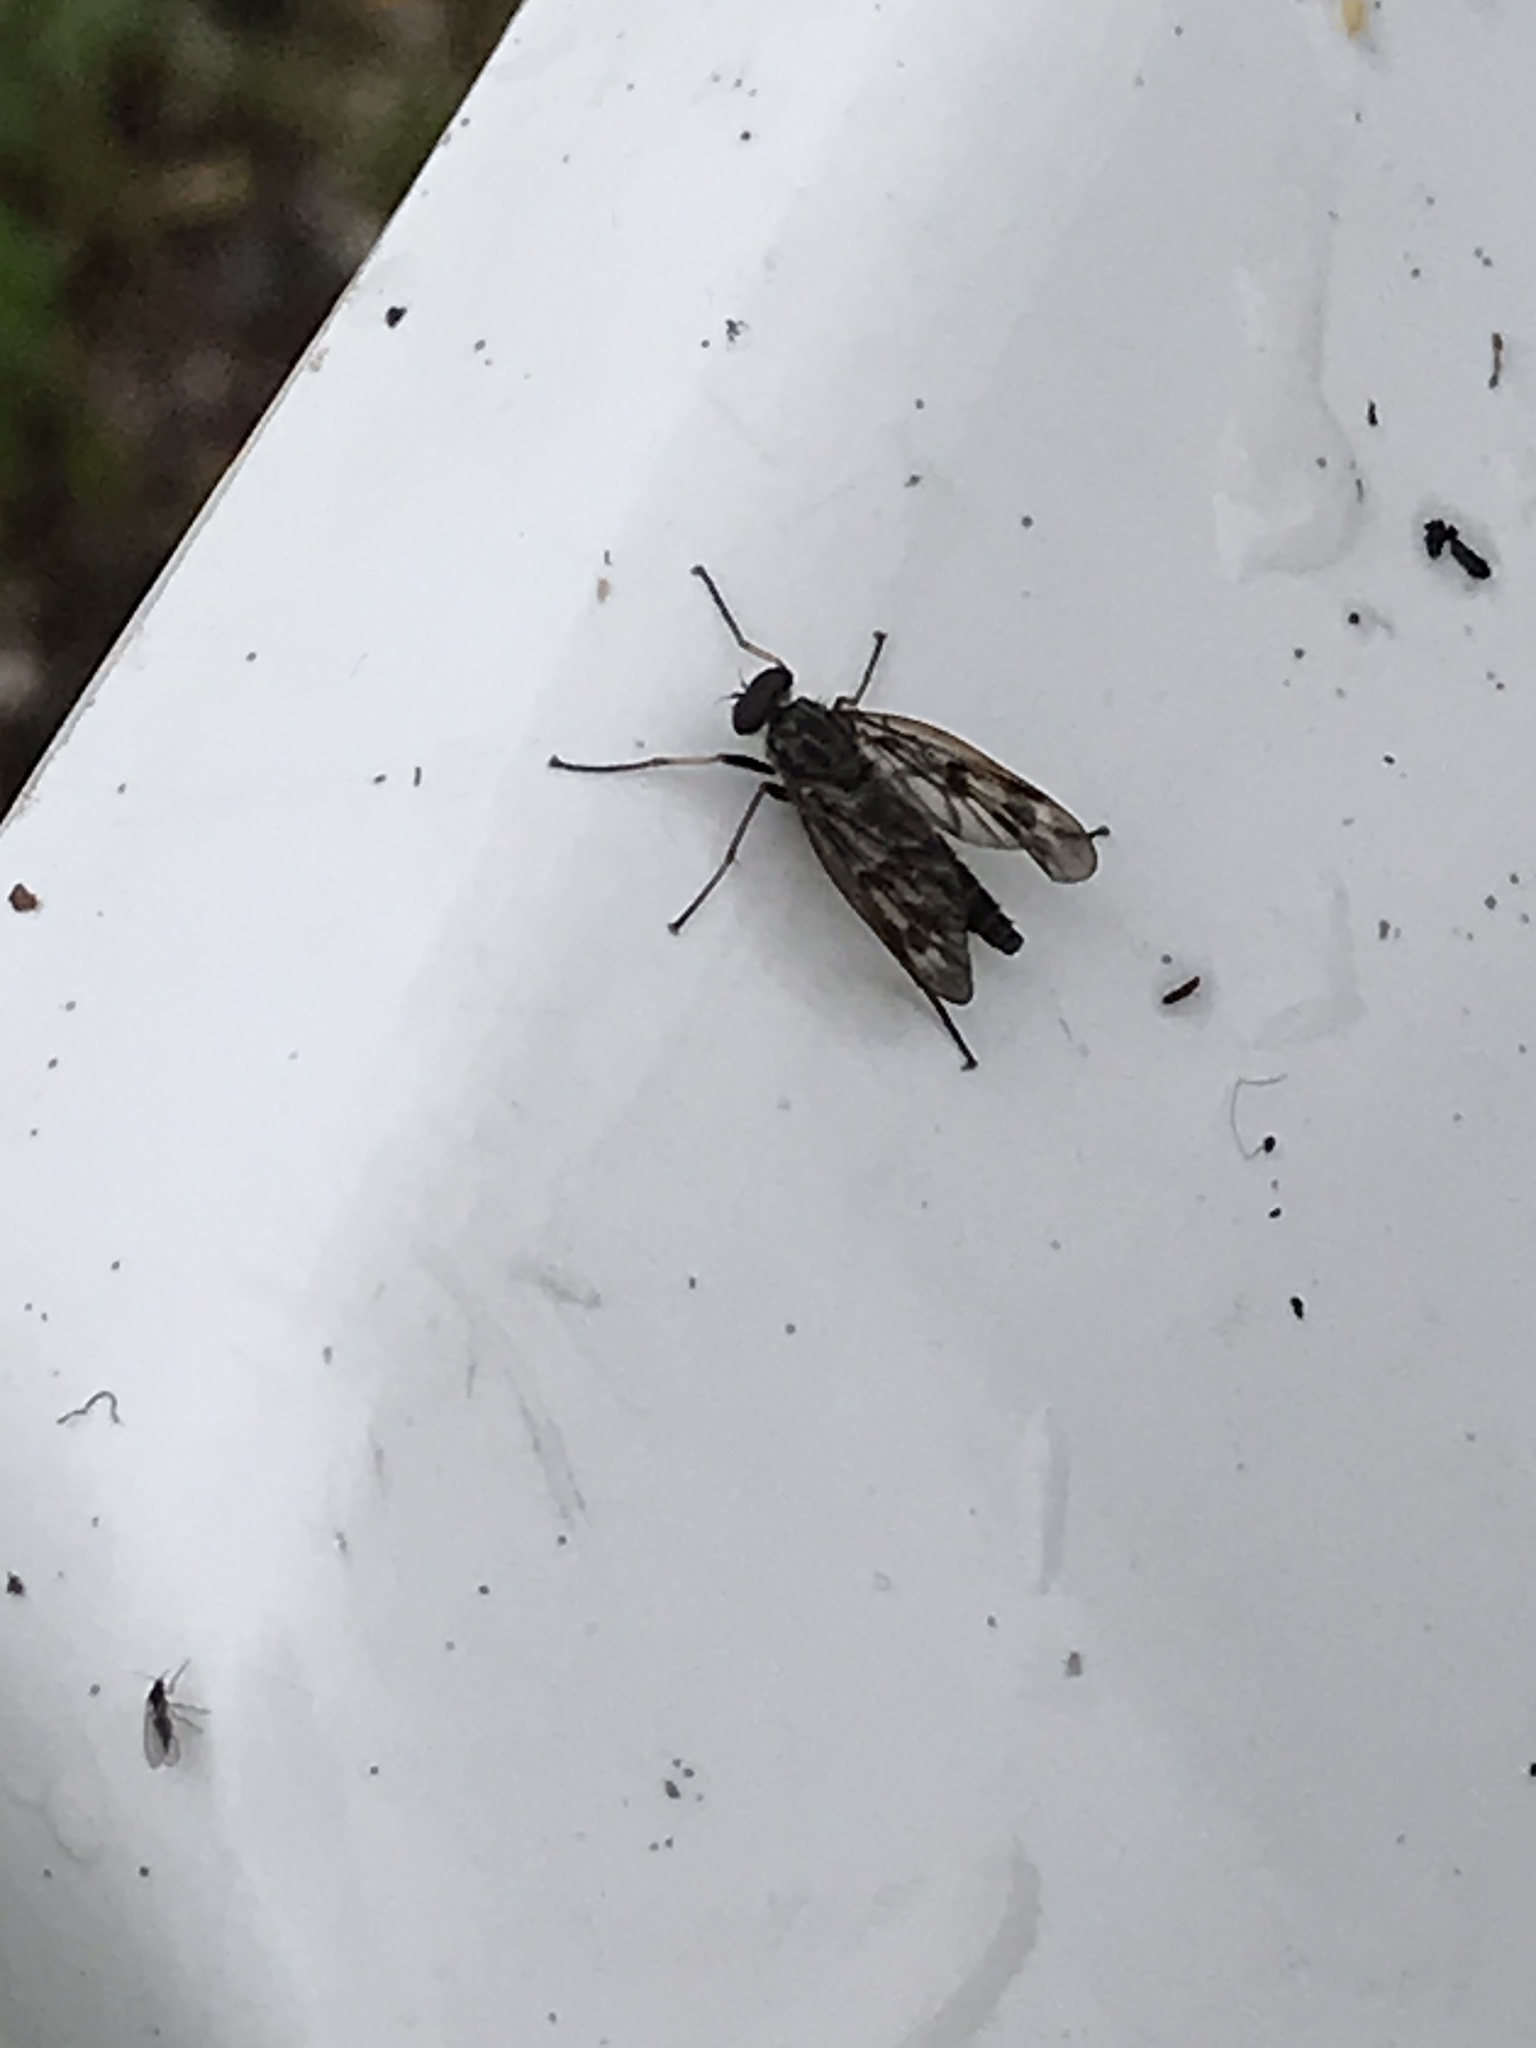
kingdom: Animalia
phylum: Arthropoda
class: Insecta
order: Diptera
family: Rhagionidae
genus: Rhagio
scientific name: Rhagio mystaceus
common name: Common snipe fly
